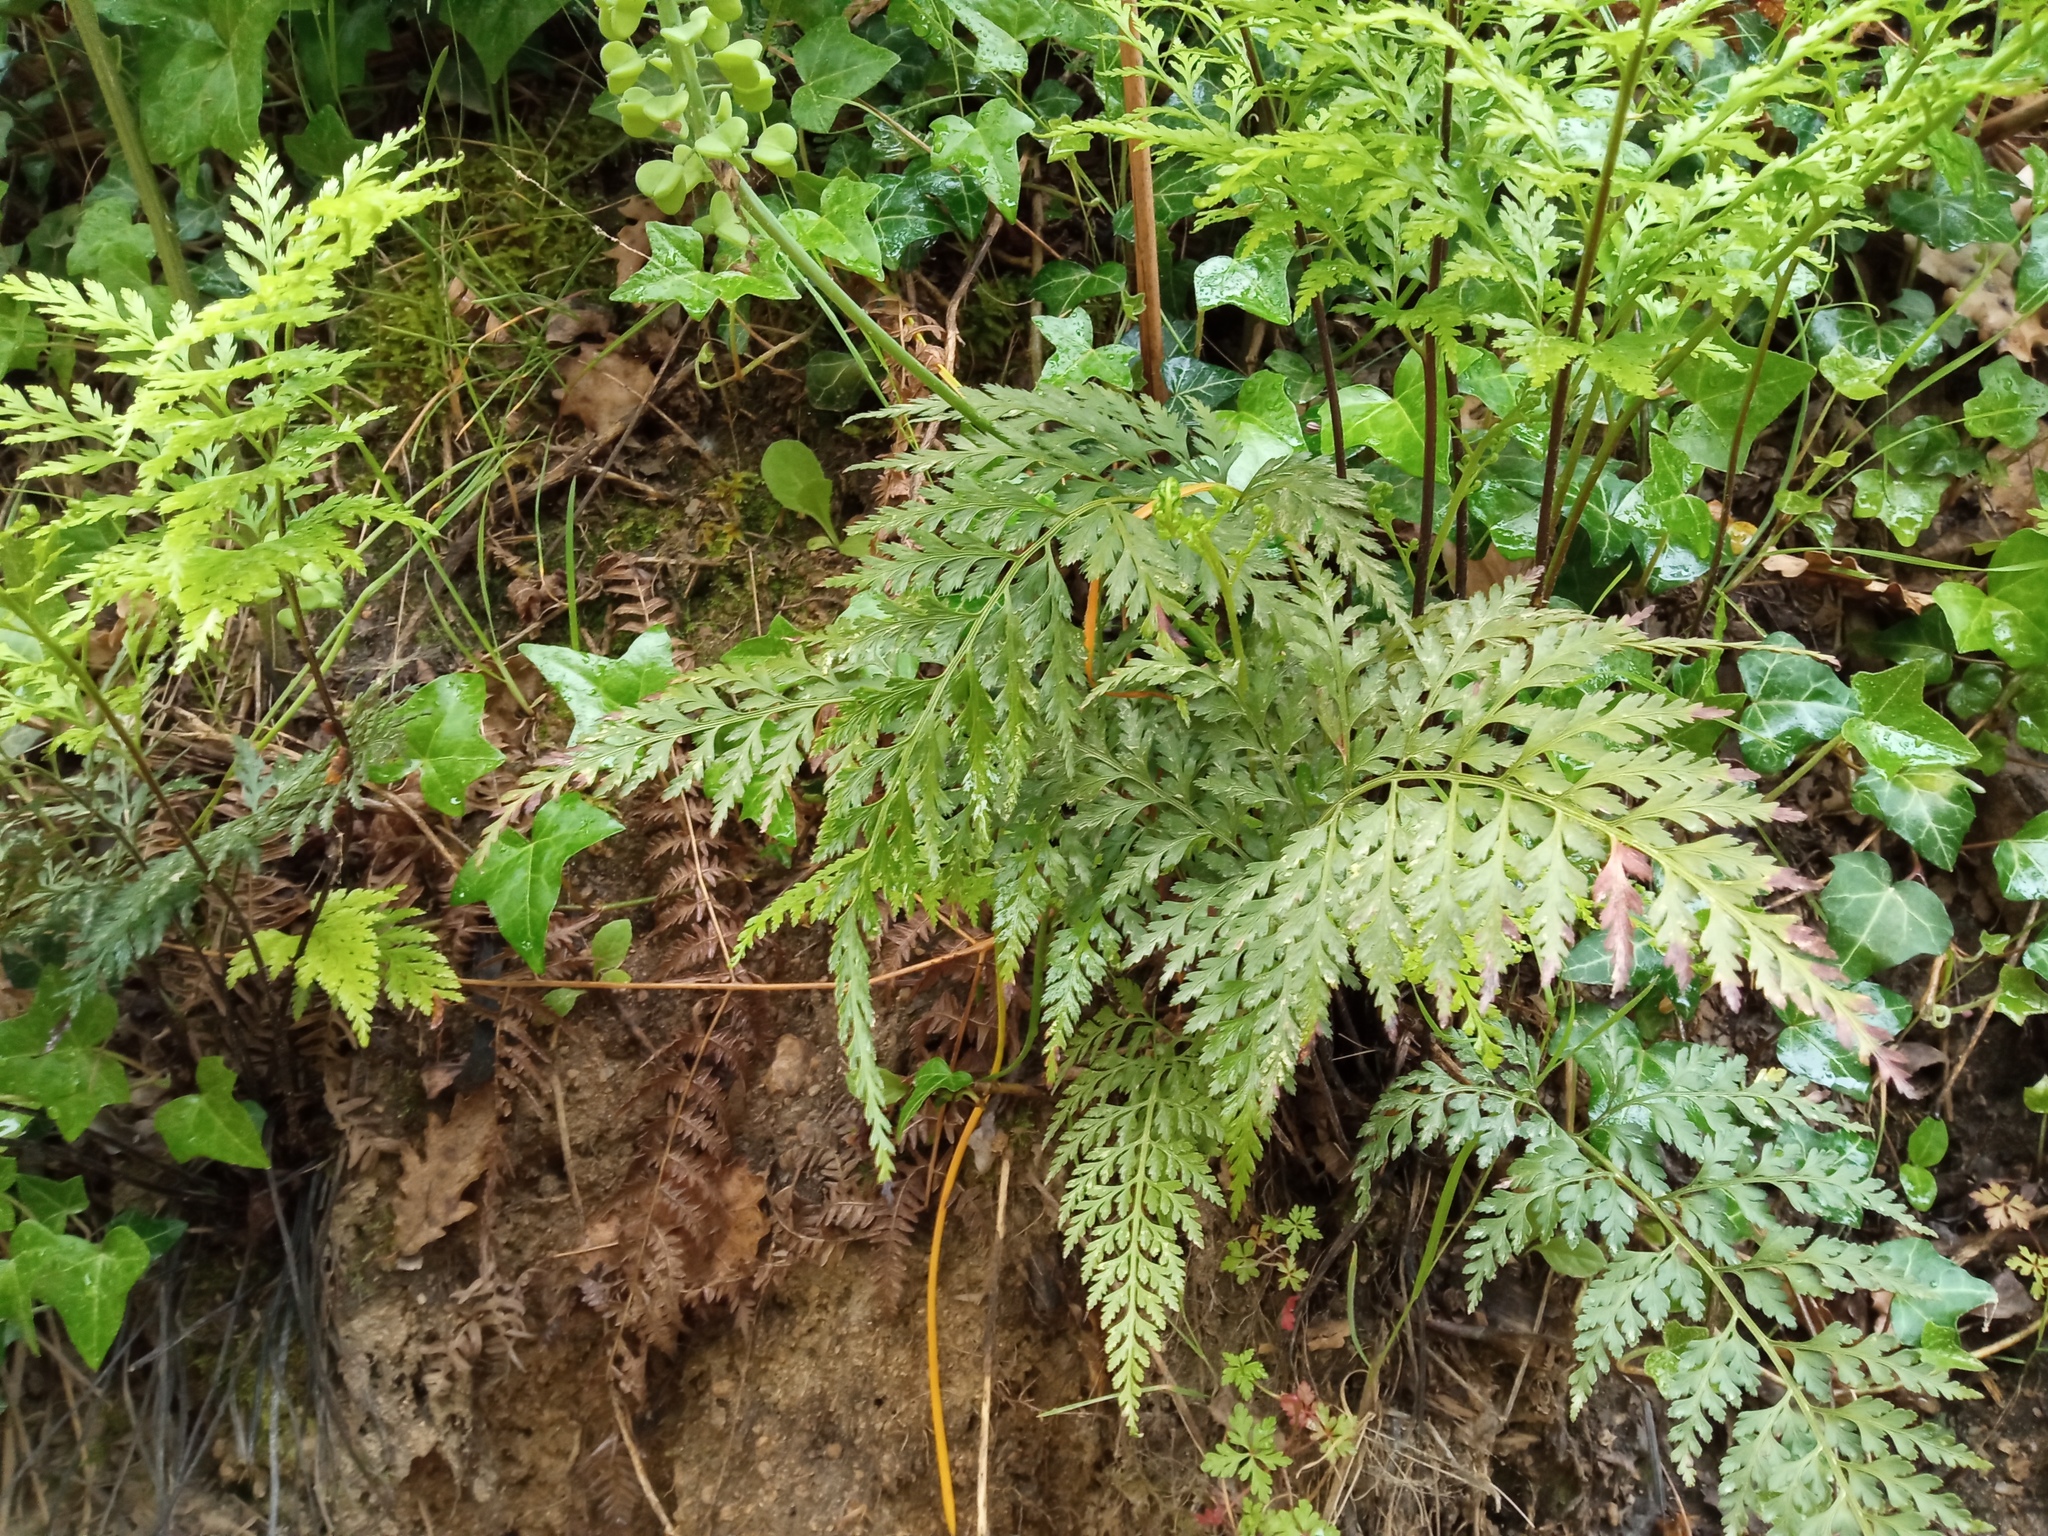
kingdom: Plantae
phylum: Tracheophyta
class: Polypodiopsida
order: Polypodiales
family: Aspleniaceae
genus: Asplenium
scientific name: Asplenium onopteris
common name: Irish spleenwort
